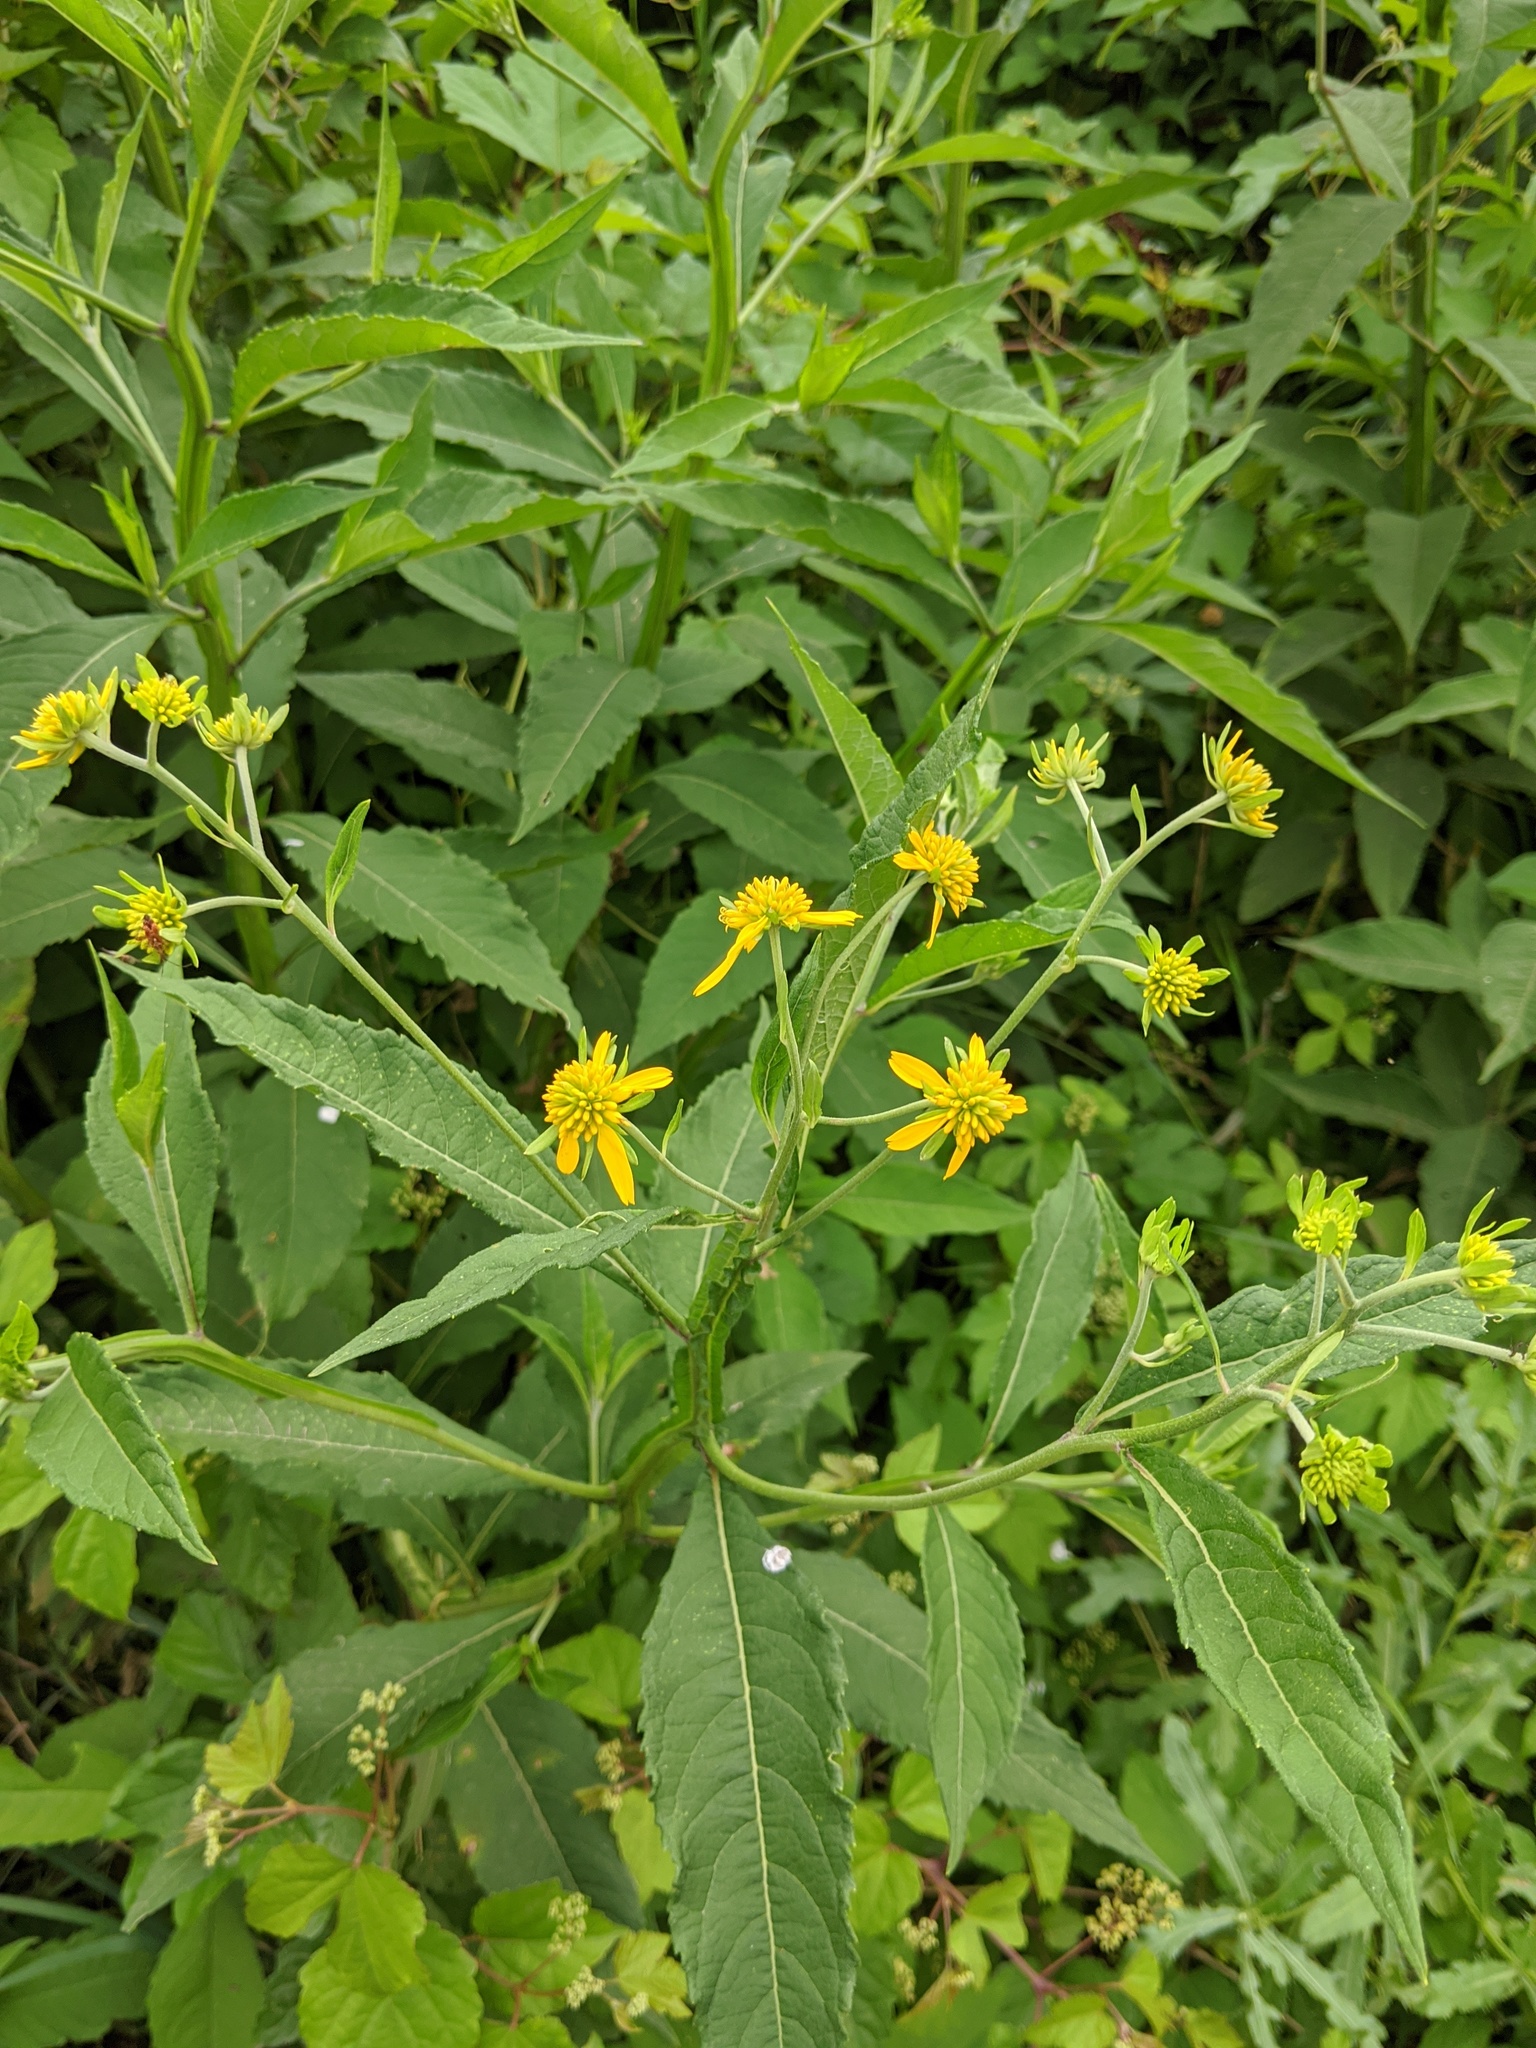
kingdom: Plantae
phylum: Tracheophyta
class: Magnoliopsida
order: Asterales
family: Asteraceae
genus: Verbesina
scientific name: Verbesina alternifolia
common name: Wingstem
